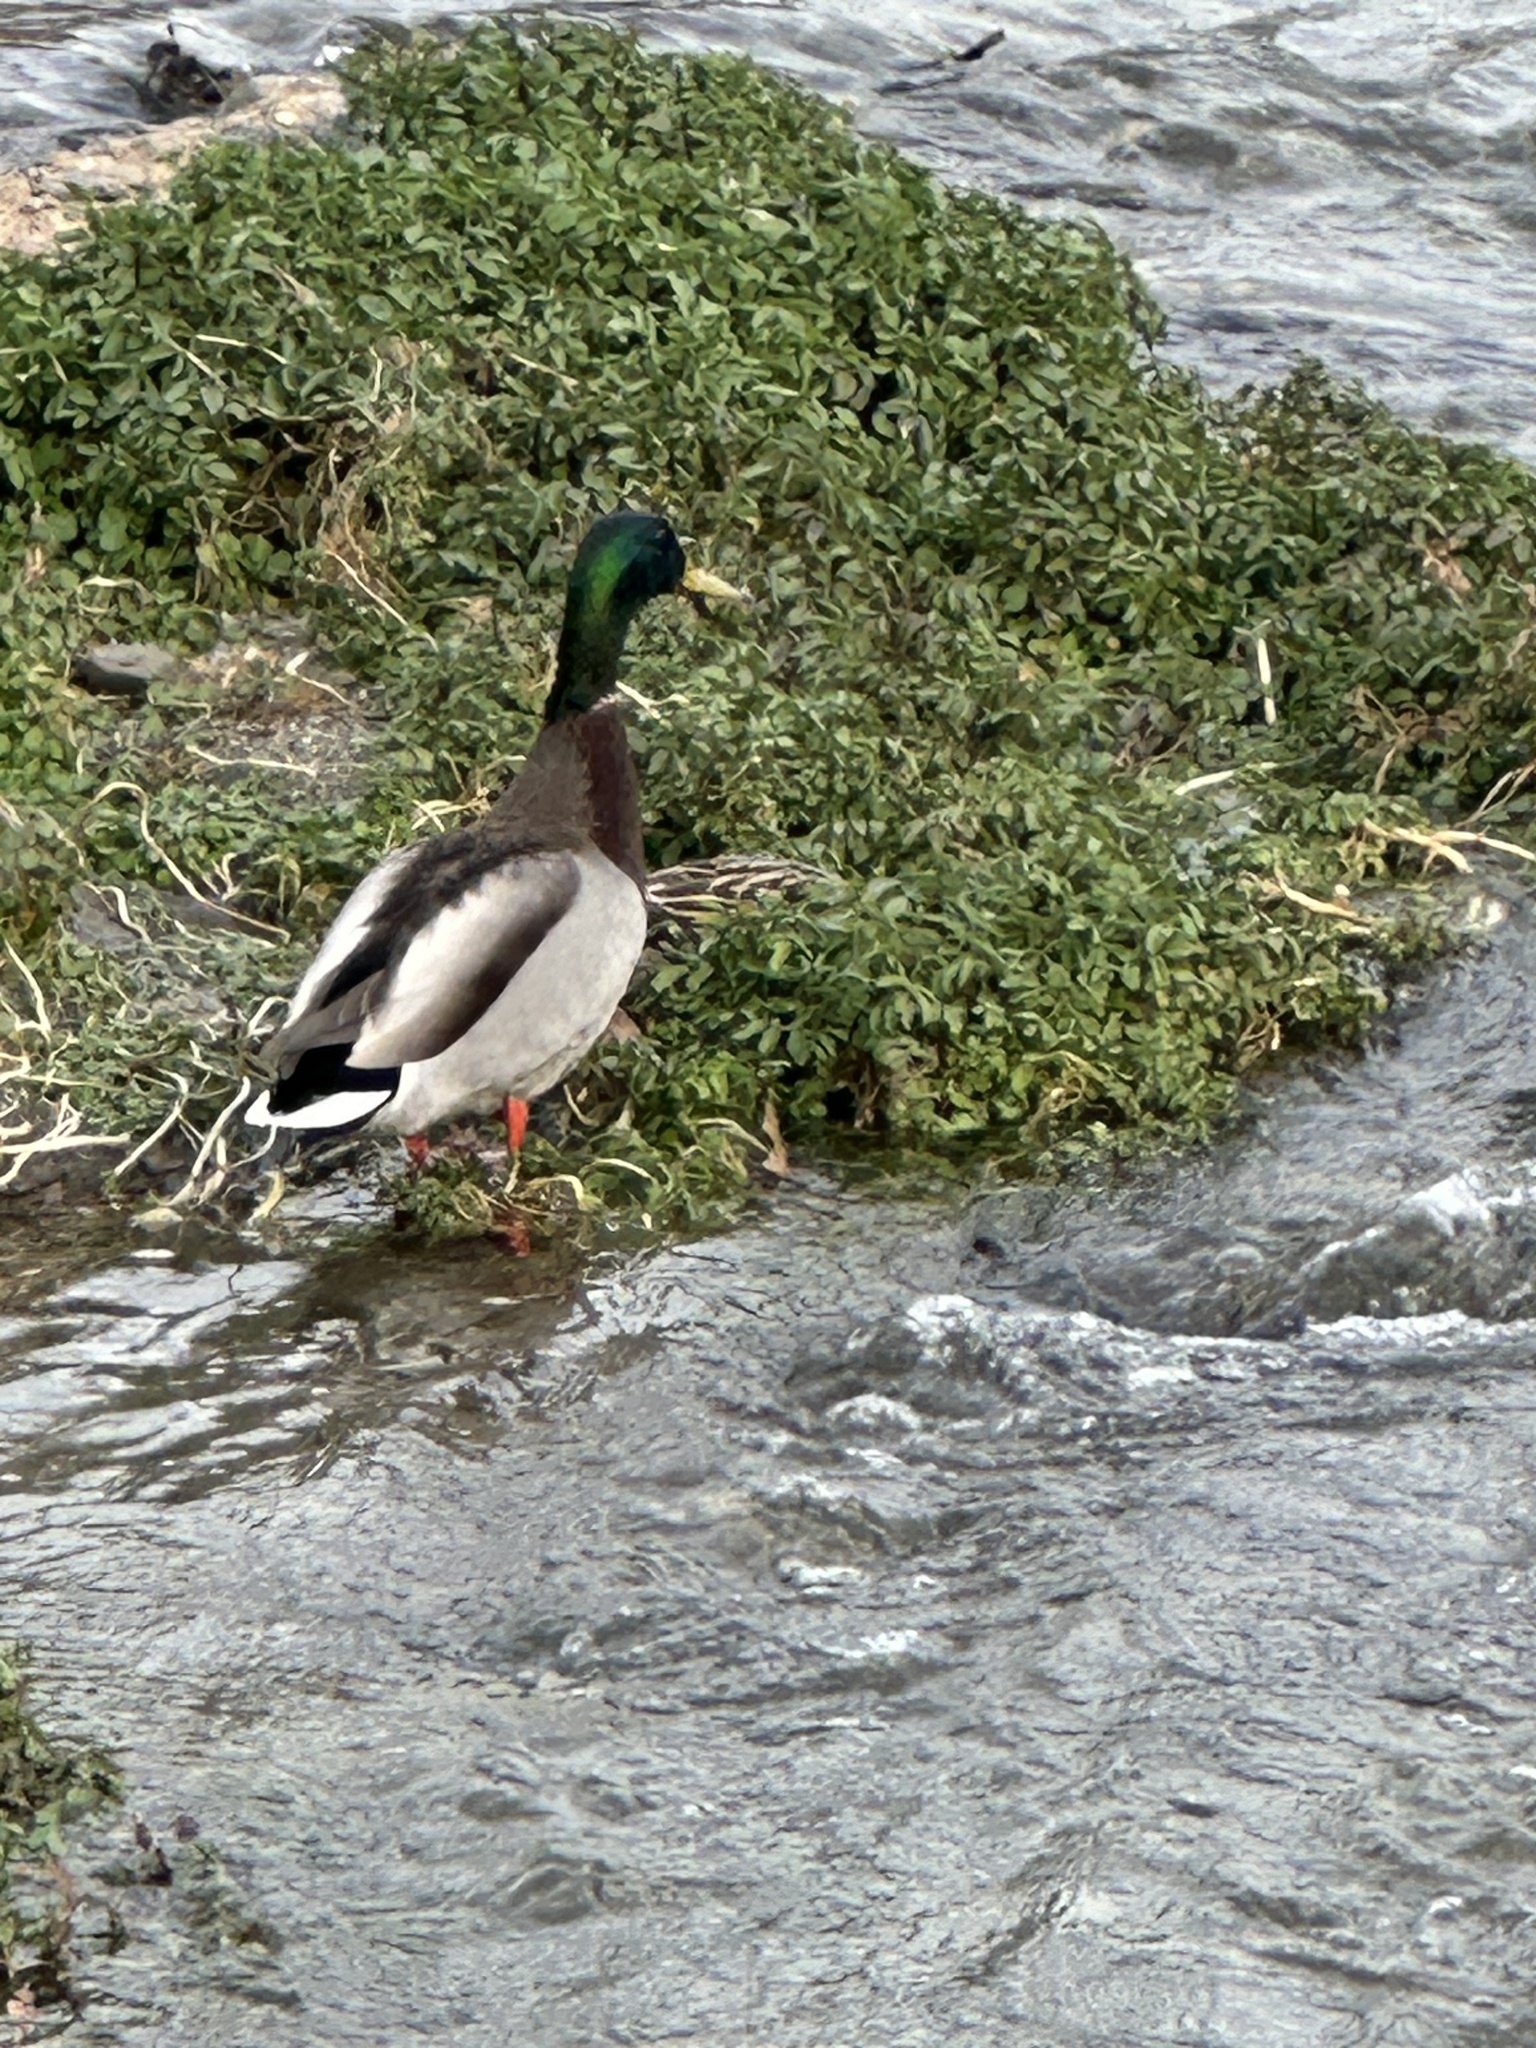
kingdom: Animalia
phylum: Chordata
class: Aves
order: Anseriformes
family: Anatidae
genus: Anas
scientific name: Anas platyrhynchos
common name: Mallard
